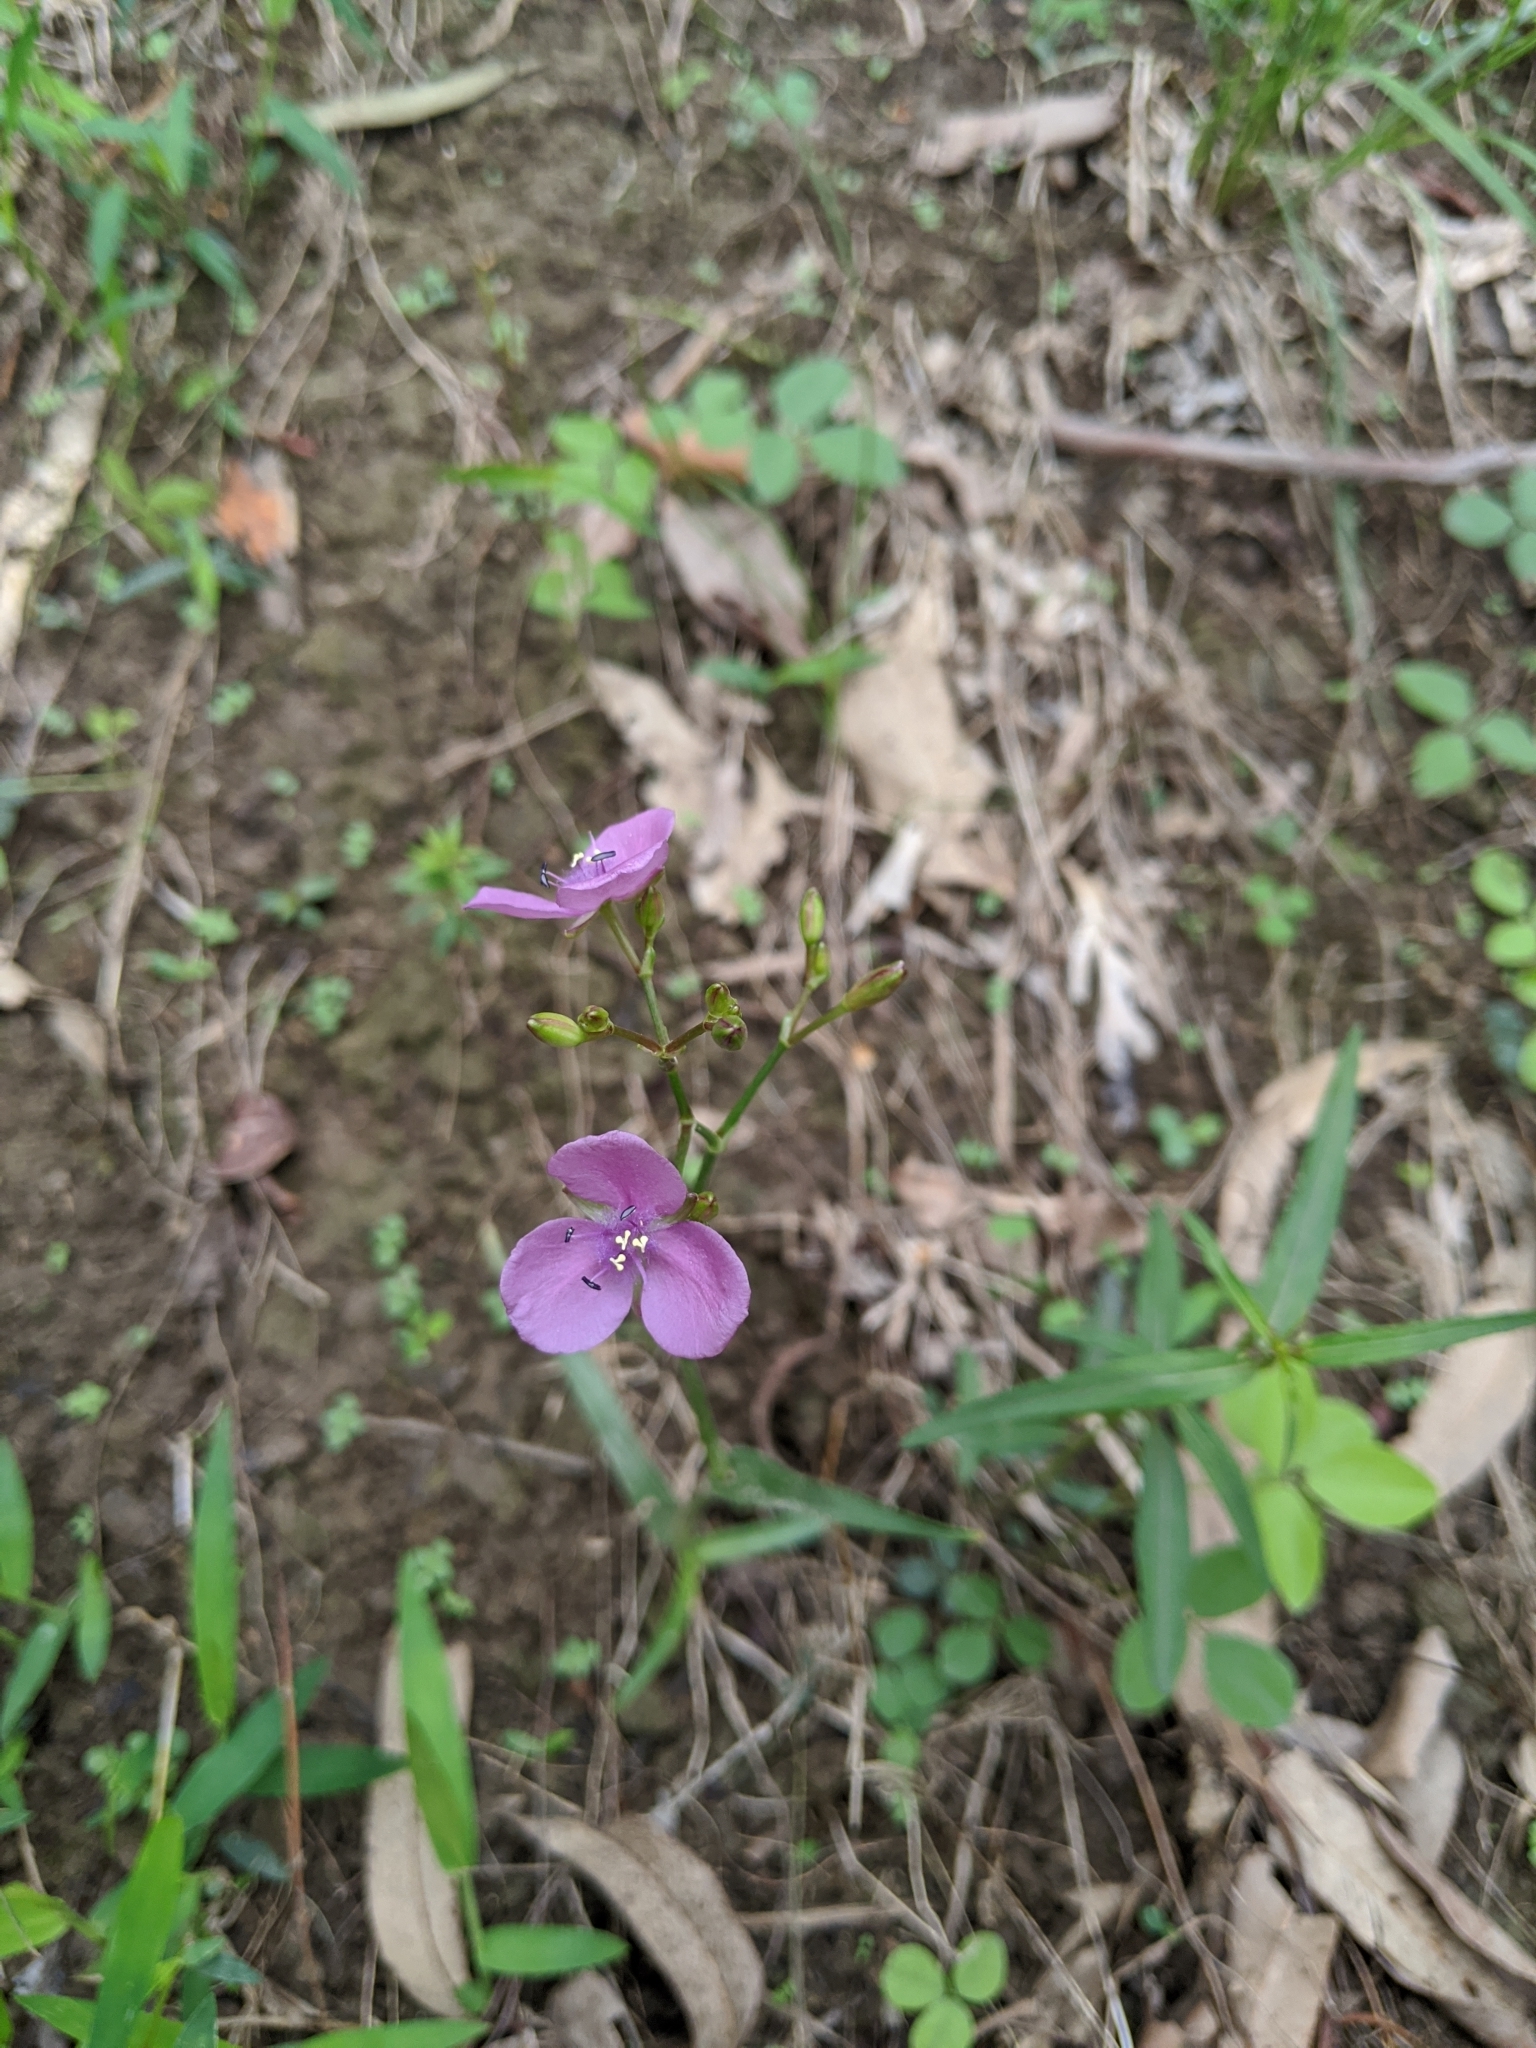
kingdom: Plantae
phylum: Tracheophyta
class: Liliopsida
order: Commelinales
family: Commelinaceae
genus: Murdannia
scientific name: Murdannia graminea
